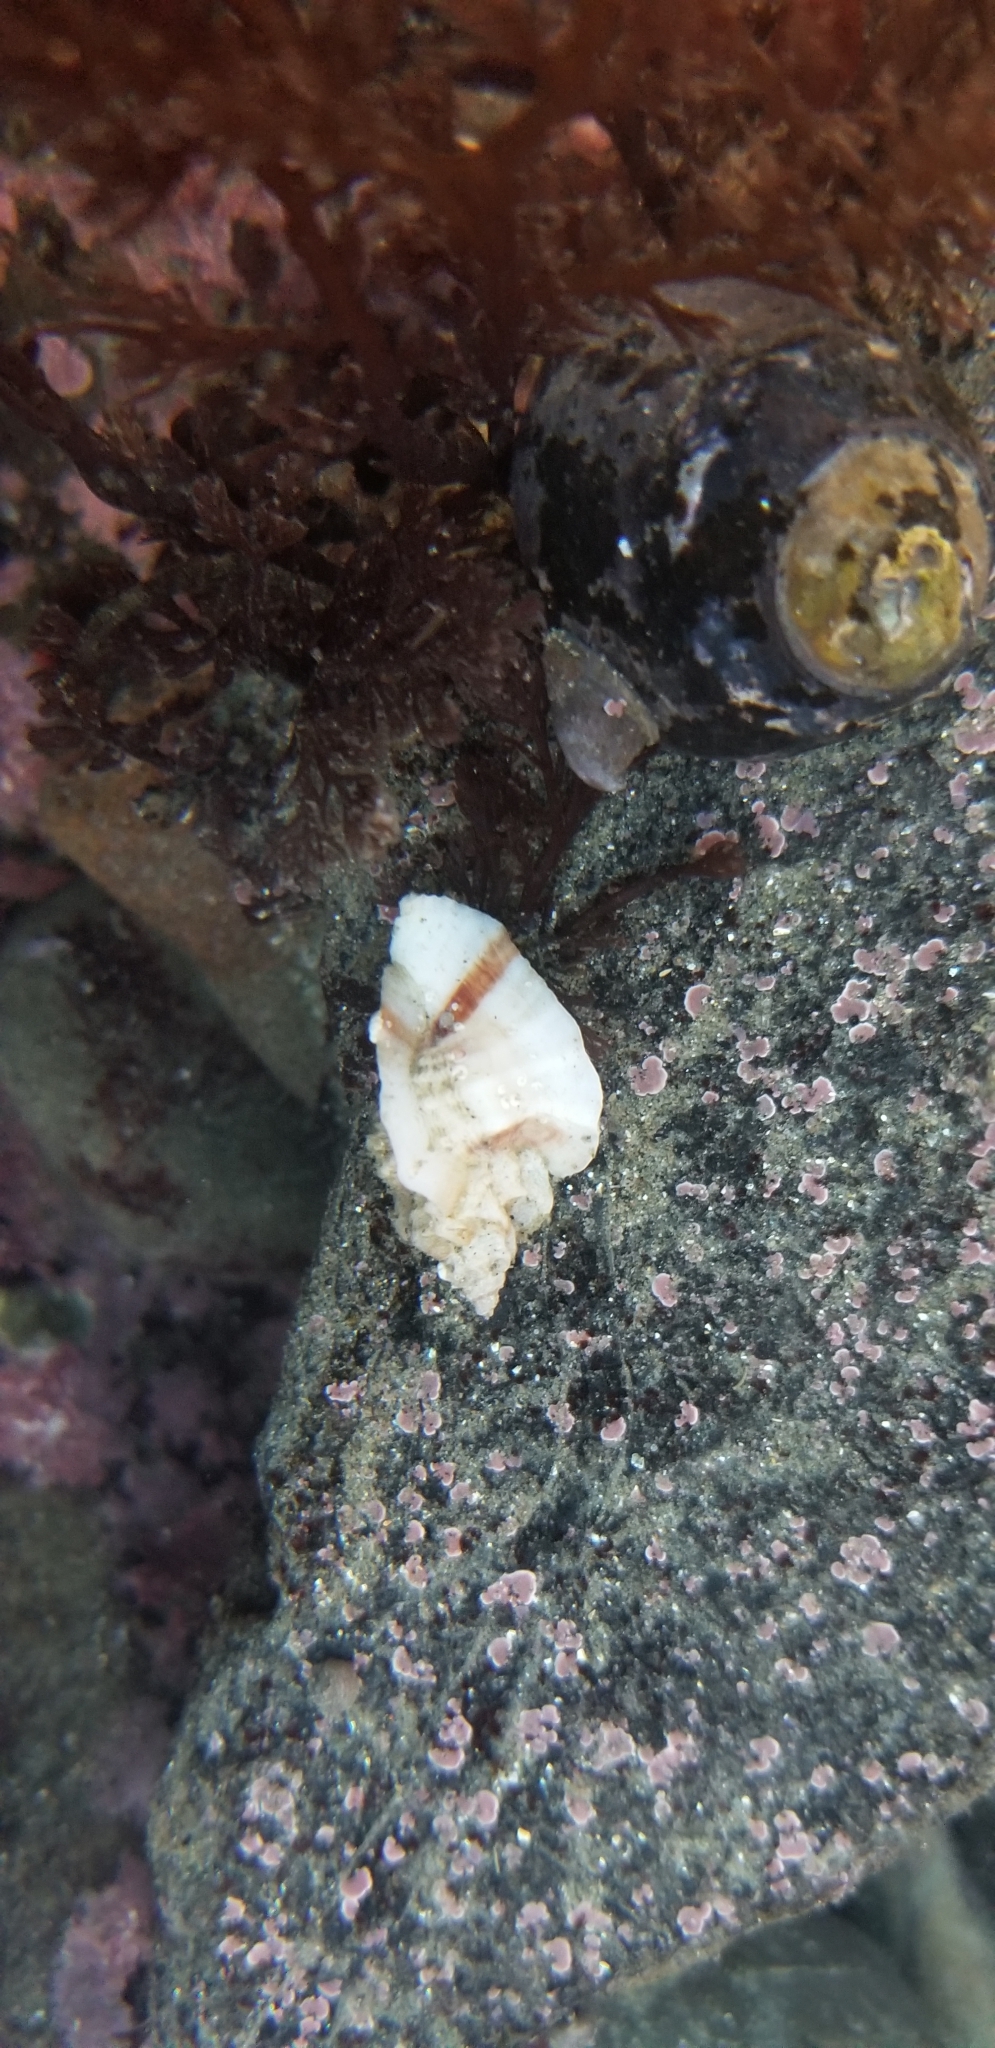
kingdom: Animalia
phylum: Mollusca
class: Gastropoda
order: Neogastropoda
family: Muricidae
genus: Ceratostoma
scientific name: Ceratostoma foliatum
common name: Foliate thorn purpura
